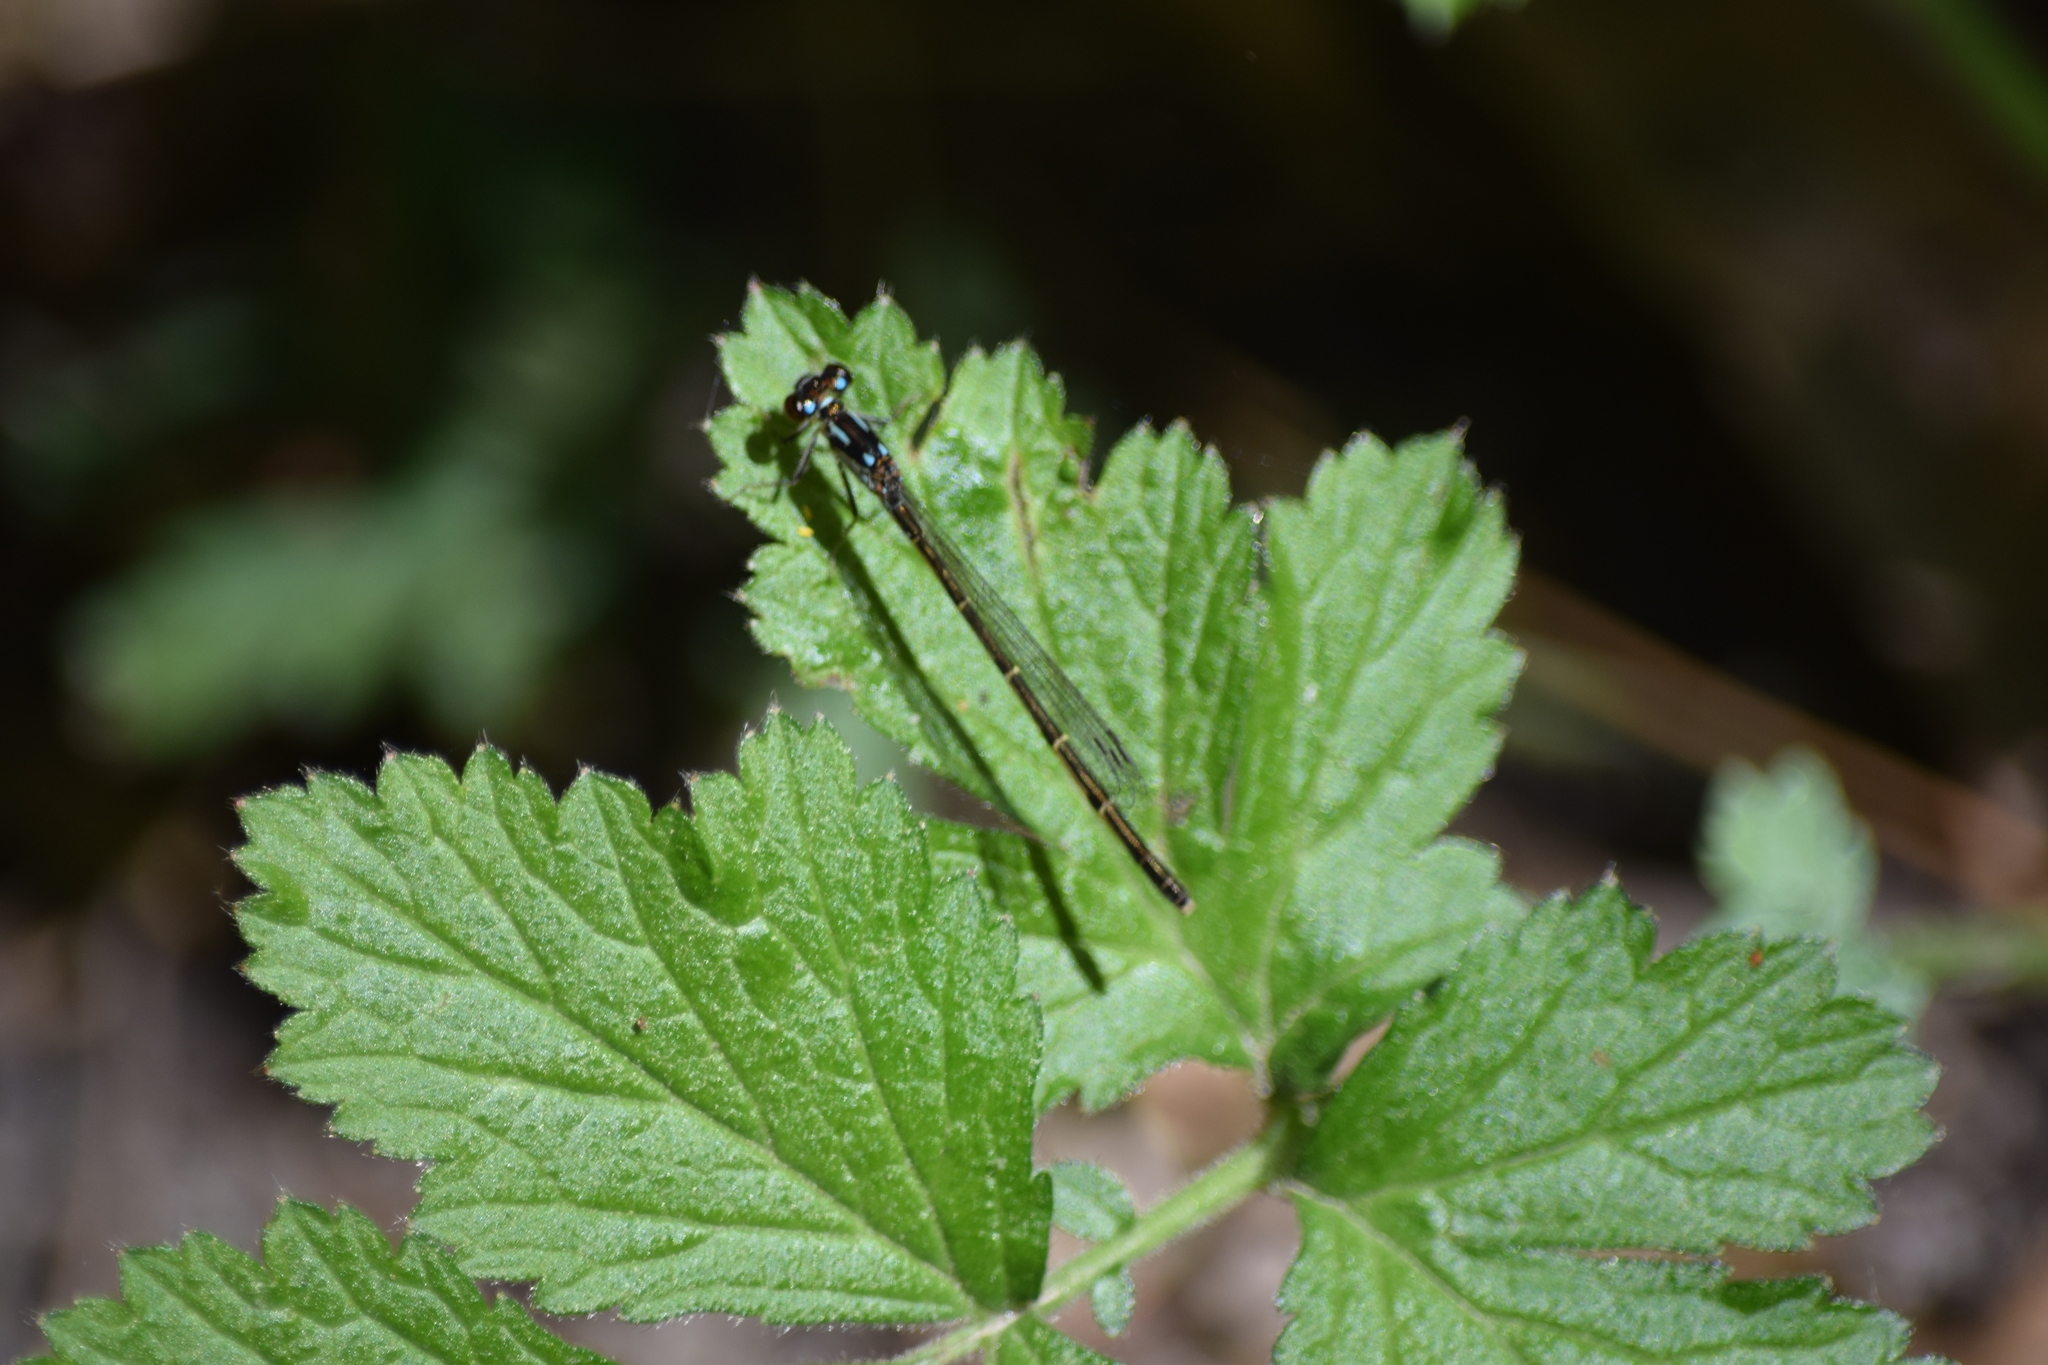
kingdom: Animalia
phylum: Arthropoda
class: Insecta
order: Odonata
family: Coenagrionidae
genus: Ischnura
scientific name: Ischnura posita
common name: Fragile forktail
